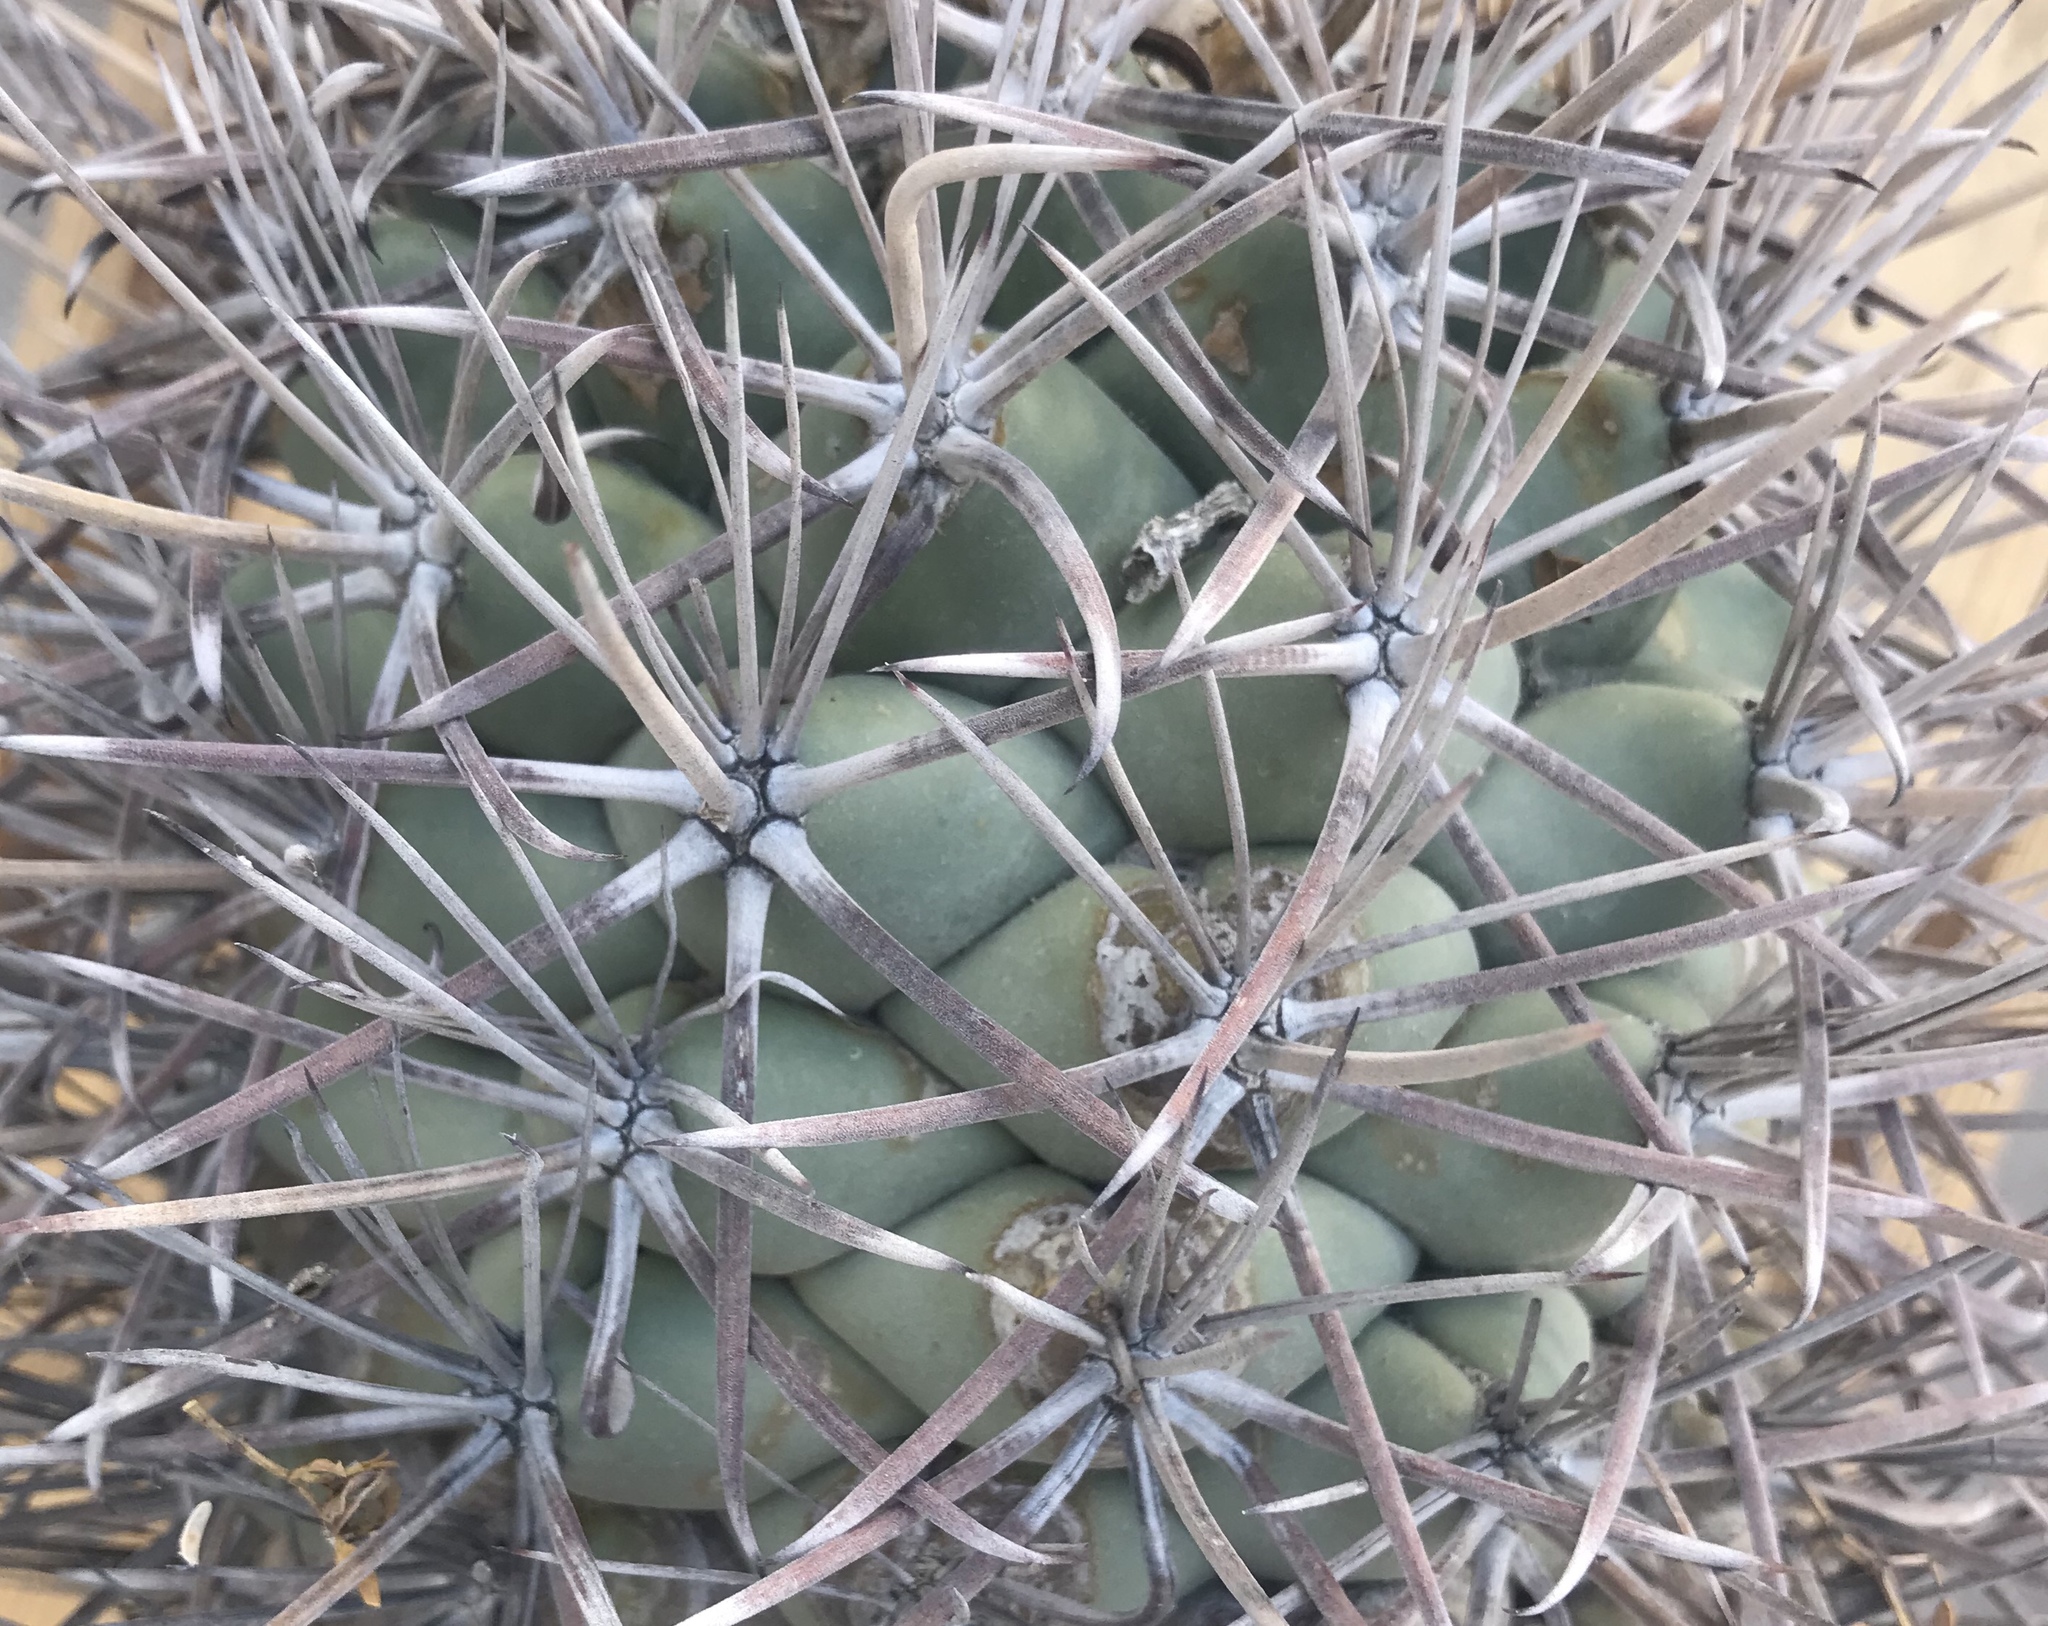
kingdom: Plantae
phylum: Tracheophyta
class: Magnoliopsida
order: Caryophyllales
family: Cactaceae
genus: Coryphantha
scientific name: Coryphantha poselgeriana
